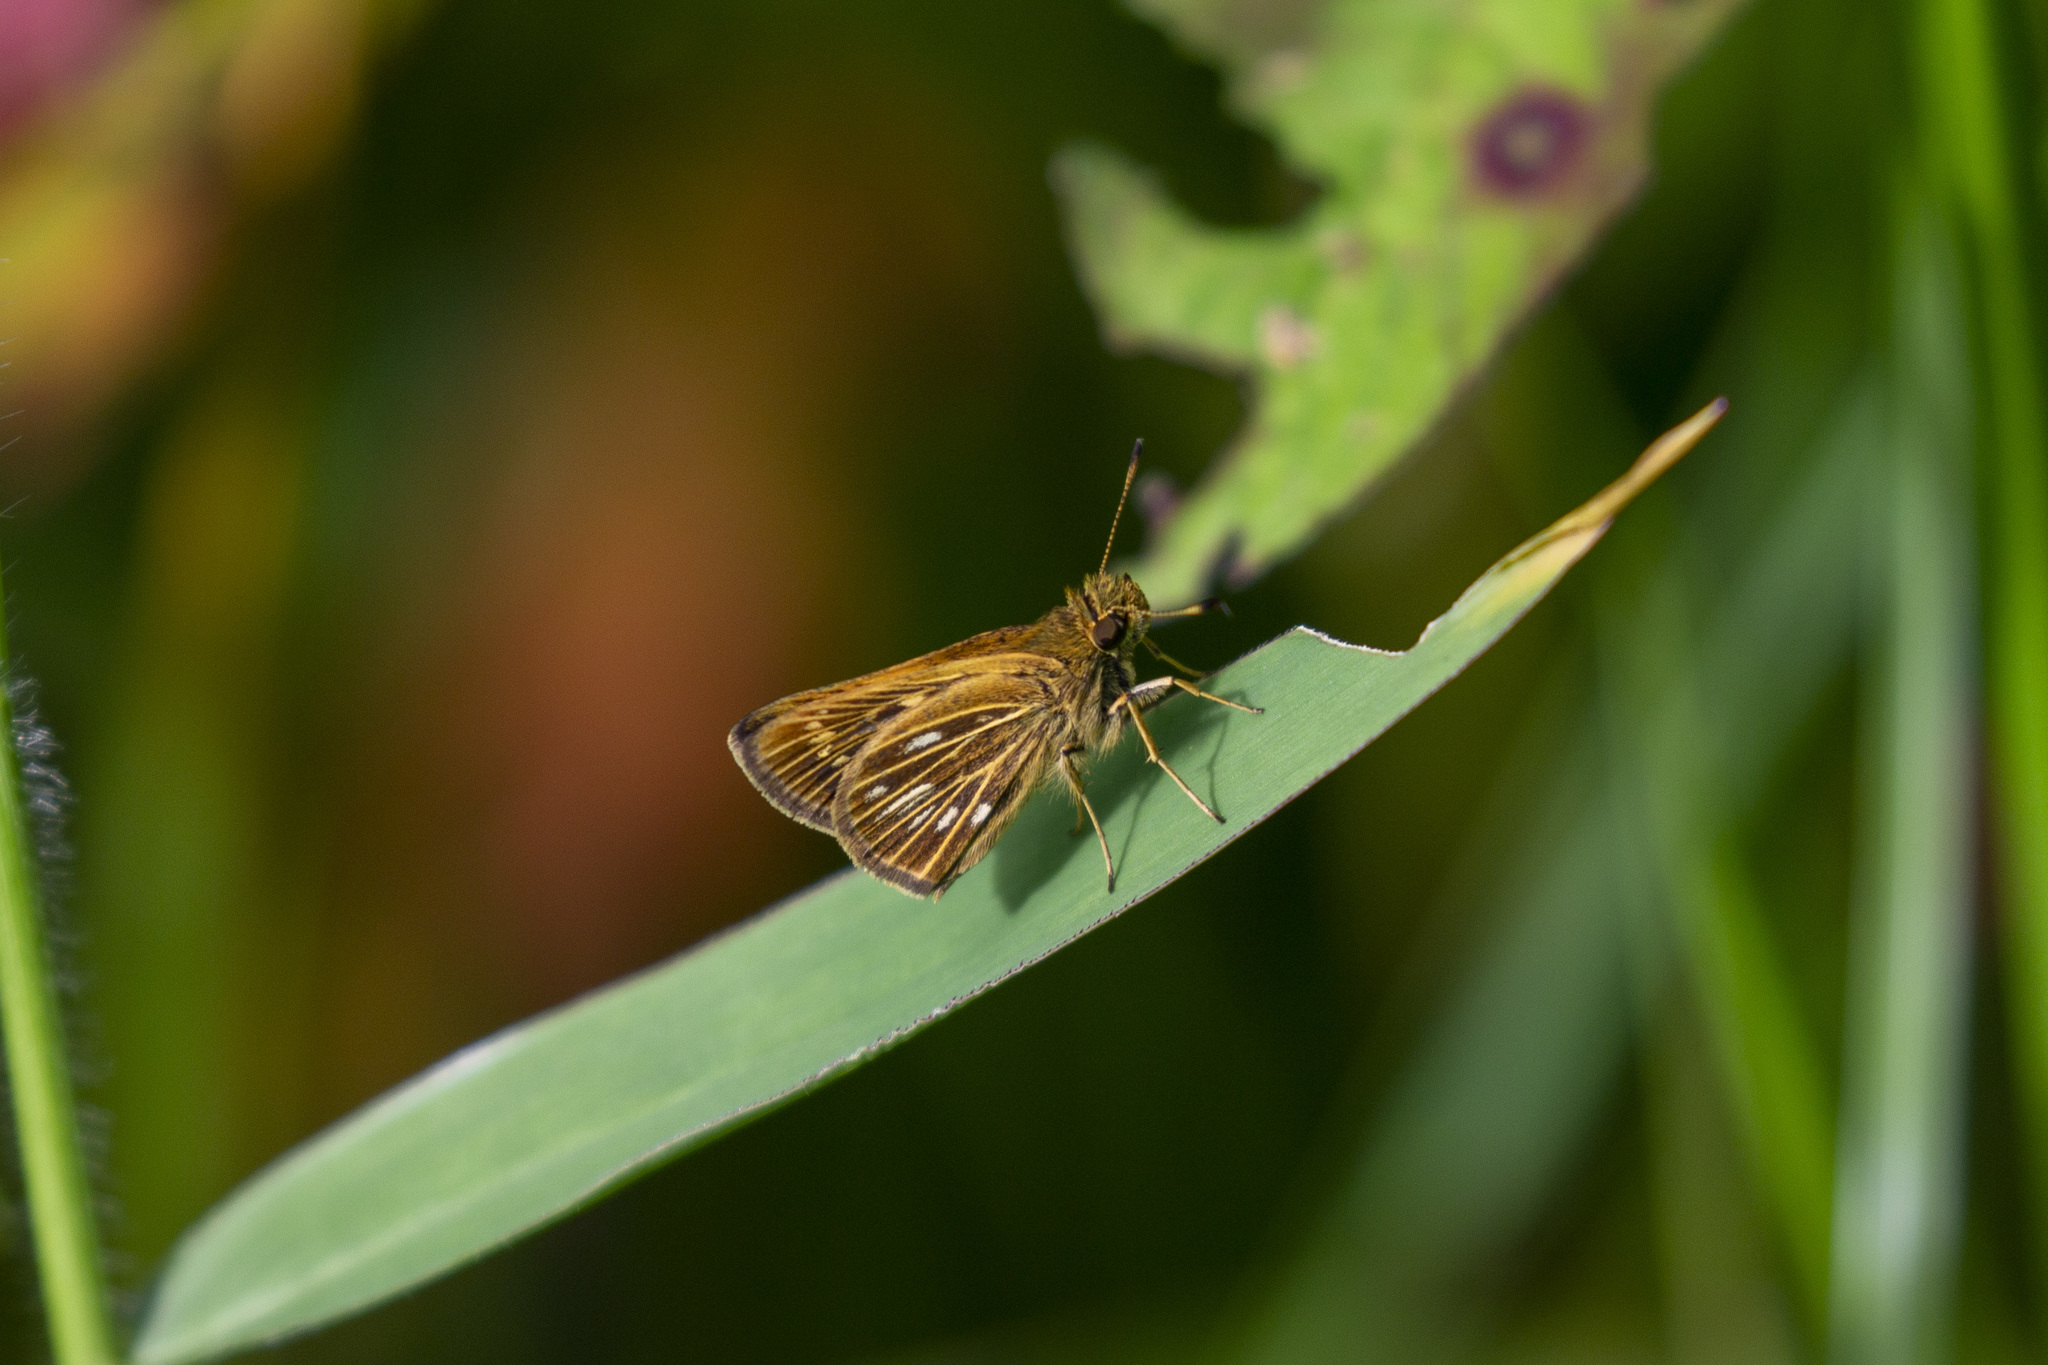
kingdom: Animalia
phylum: Arthropoda
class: Insecta
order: Lepidoptera
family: Hesperiidae
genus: Nastra
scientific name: Nastra
